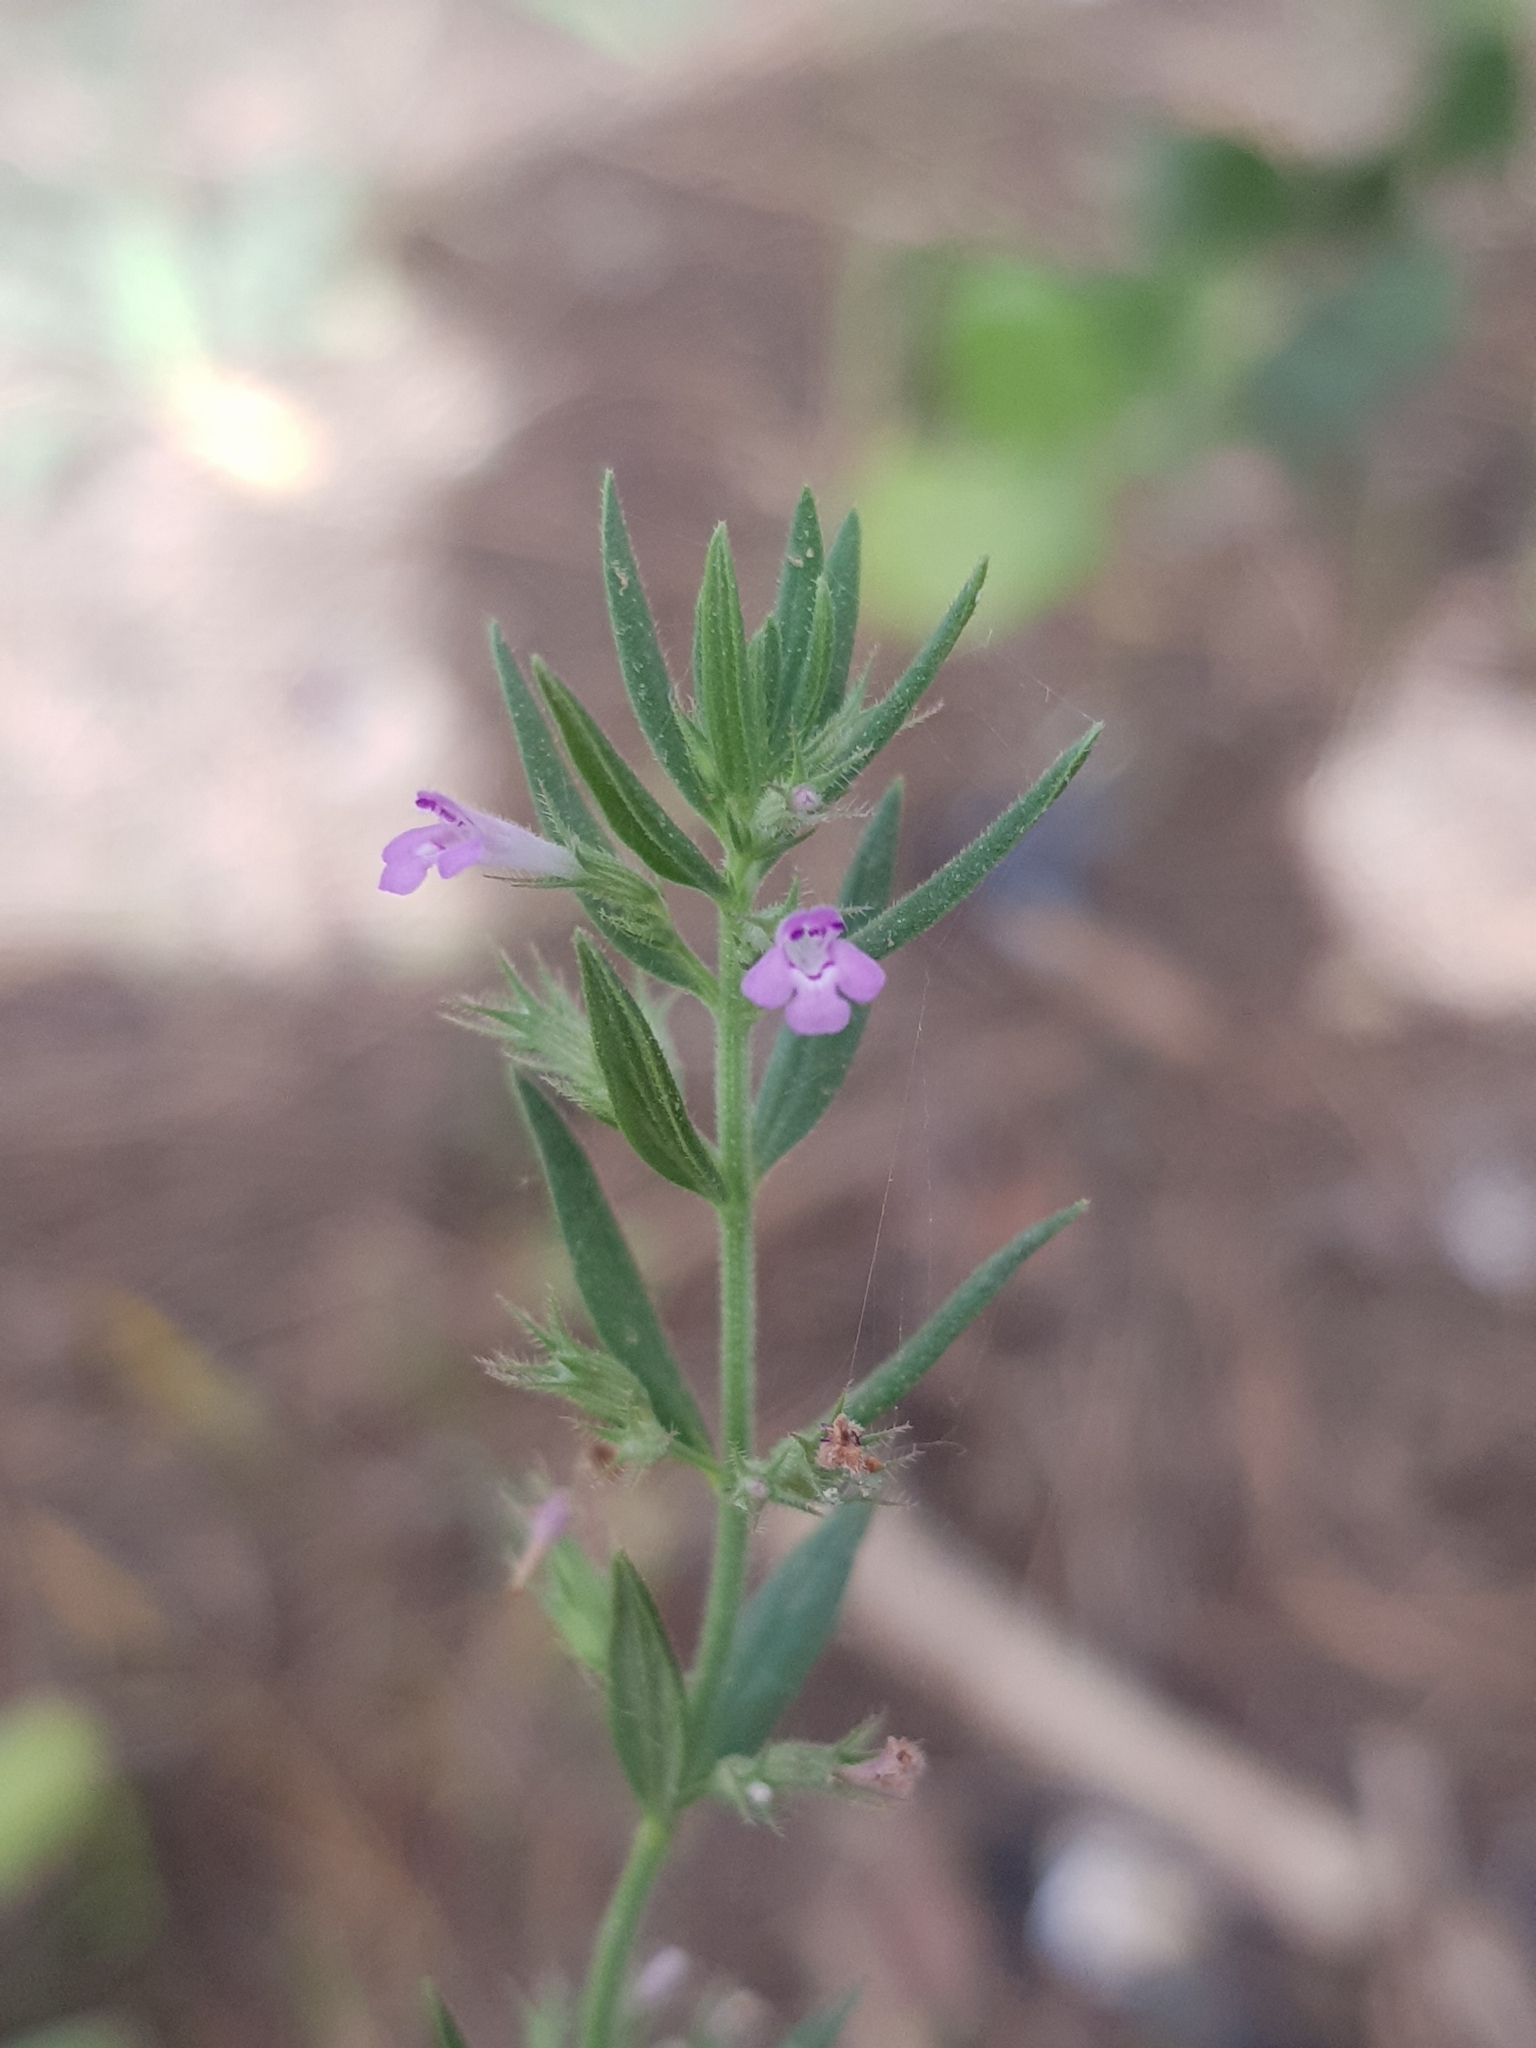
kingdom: Plantae
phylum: Tracheophyta
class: Magnoliopsida
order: Lamiales
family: Lamiaceae
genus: Micromeria
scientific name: Micromeria graeca
